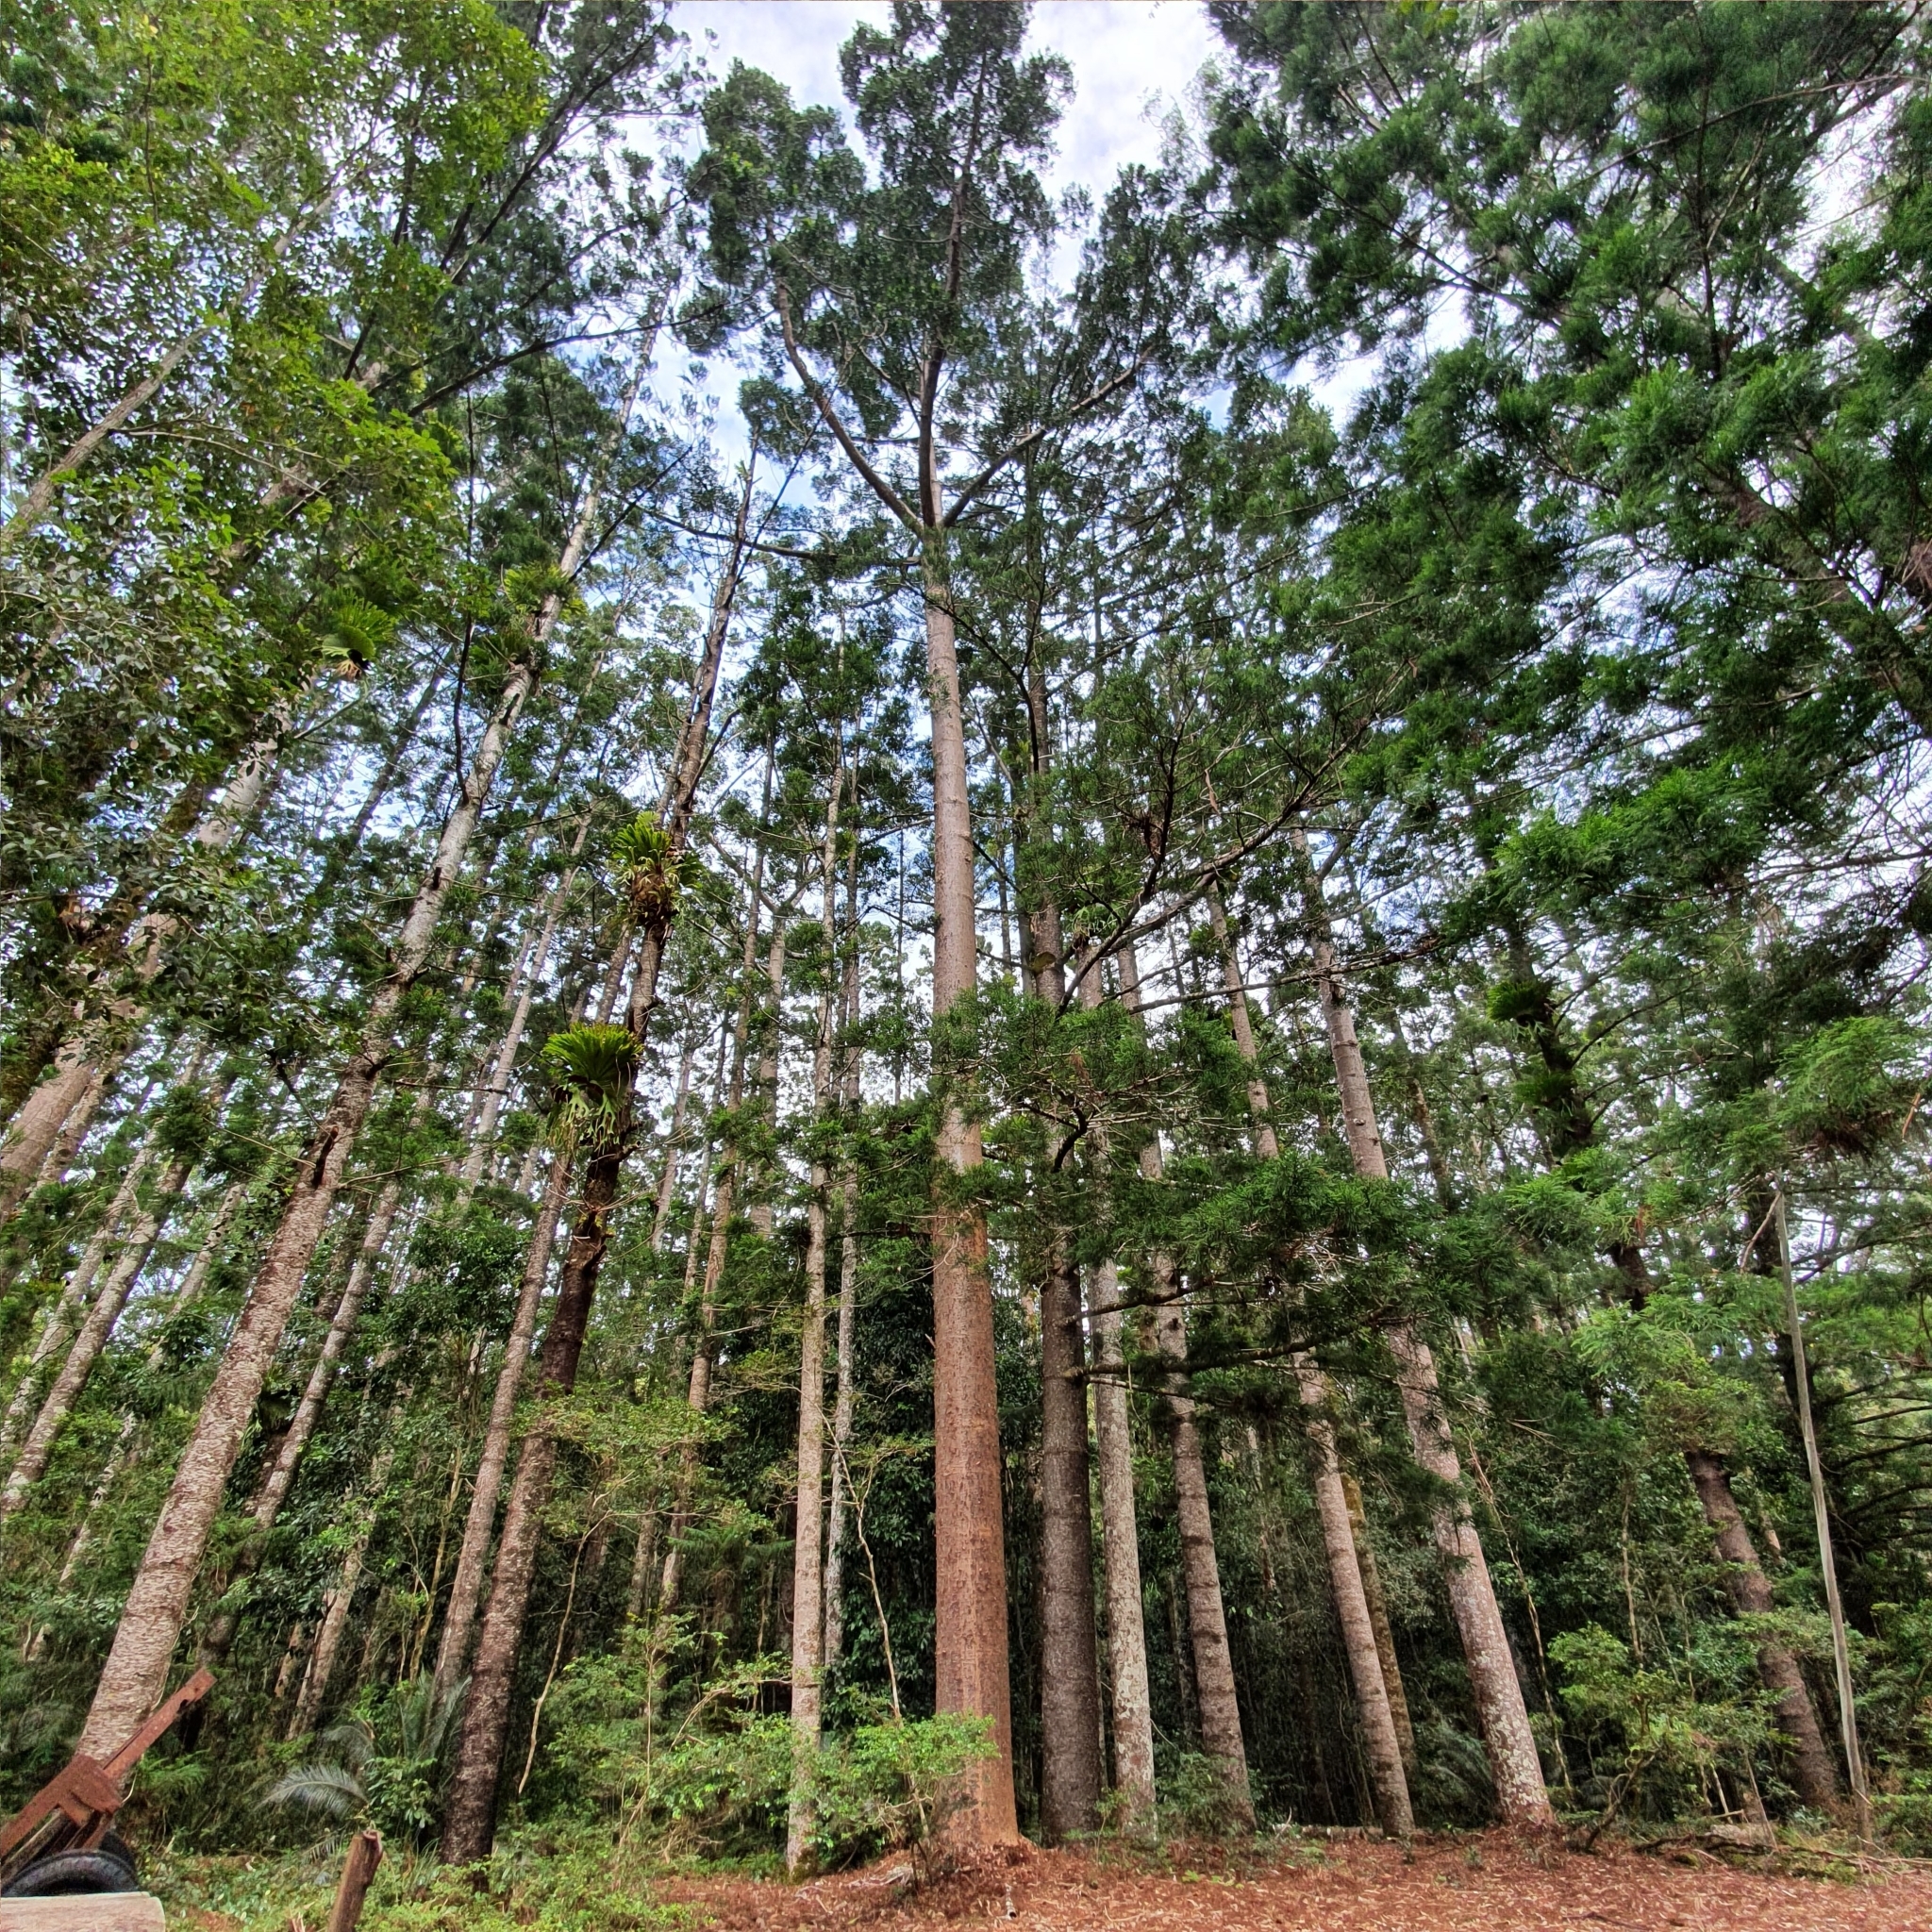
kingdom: Plantae
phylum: Tracheophyta
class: Pinopsida
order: Pinales
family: Araucariaceae
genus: Agathis
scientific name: Agathis robusta
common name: Australian-kauri
